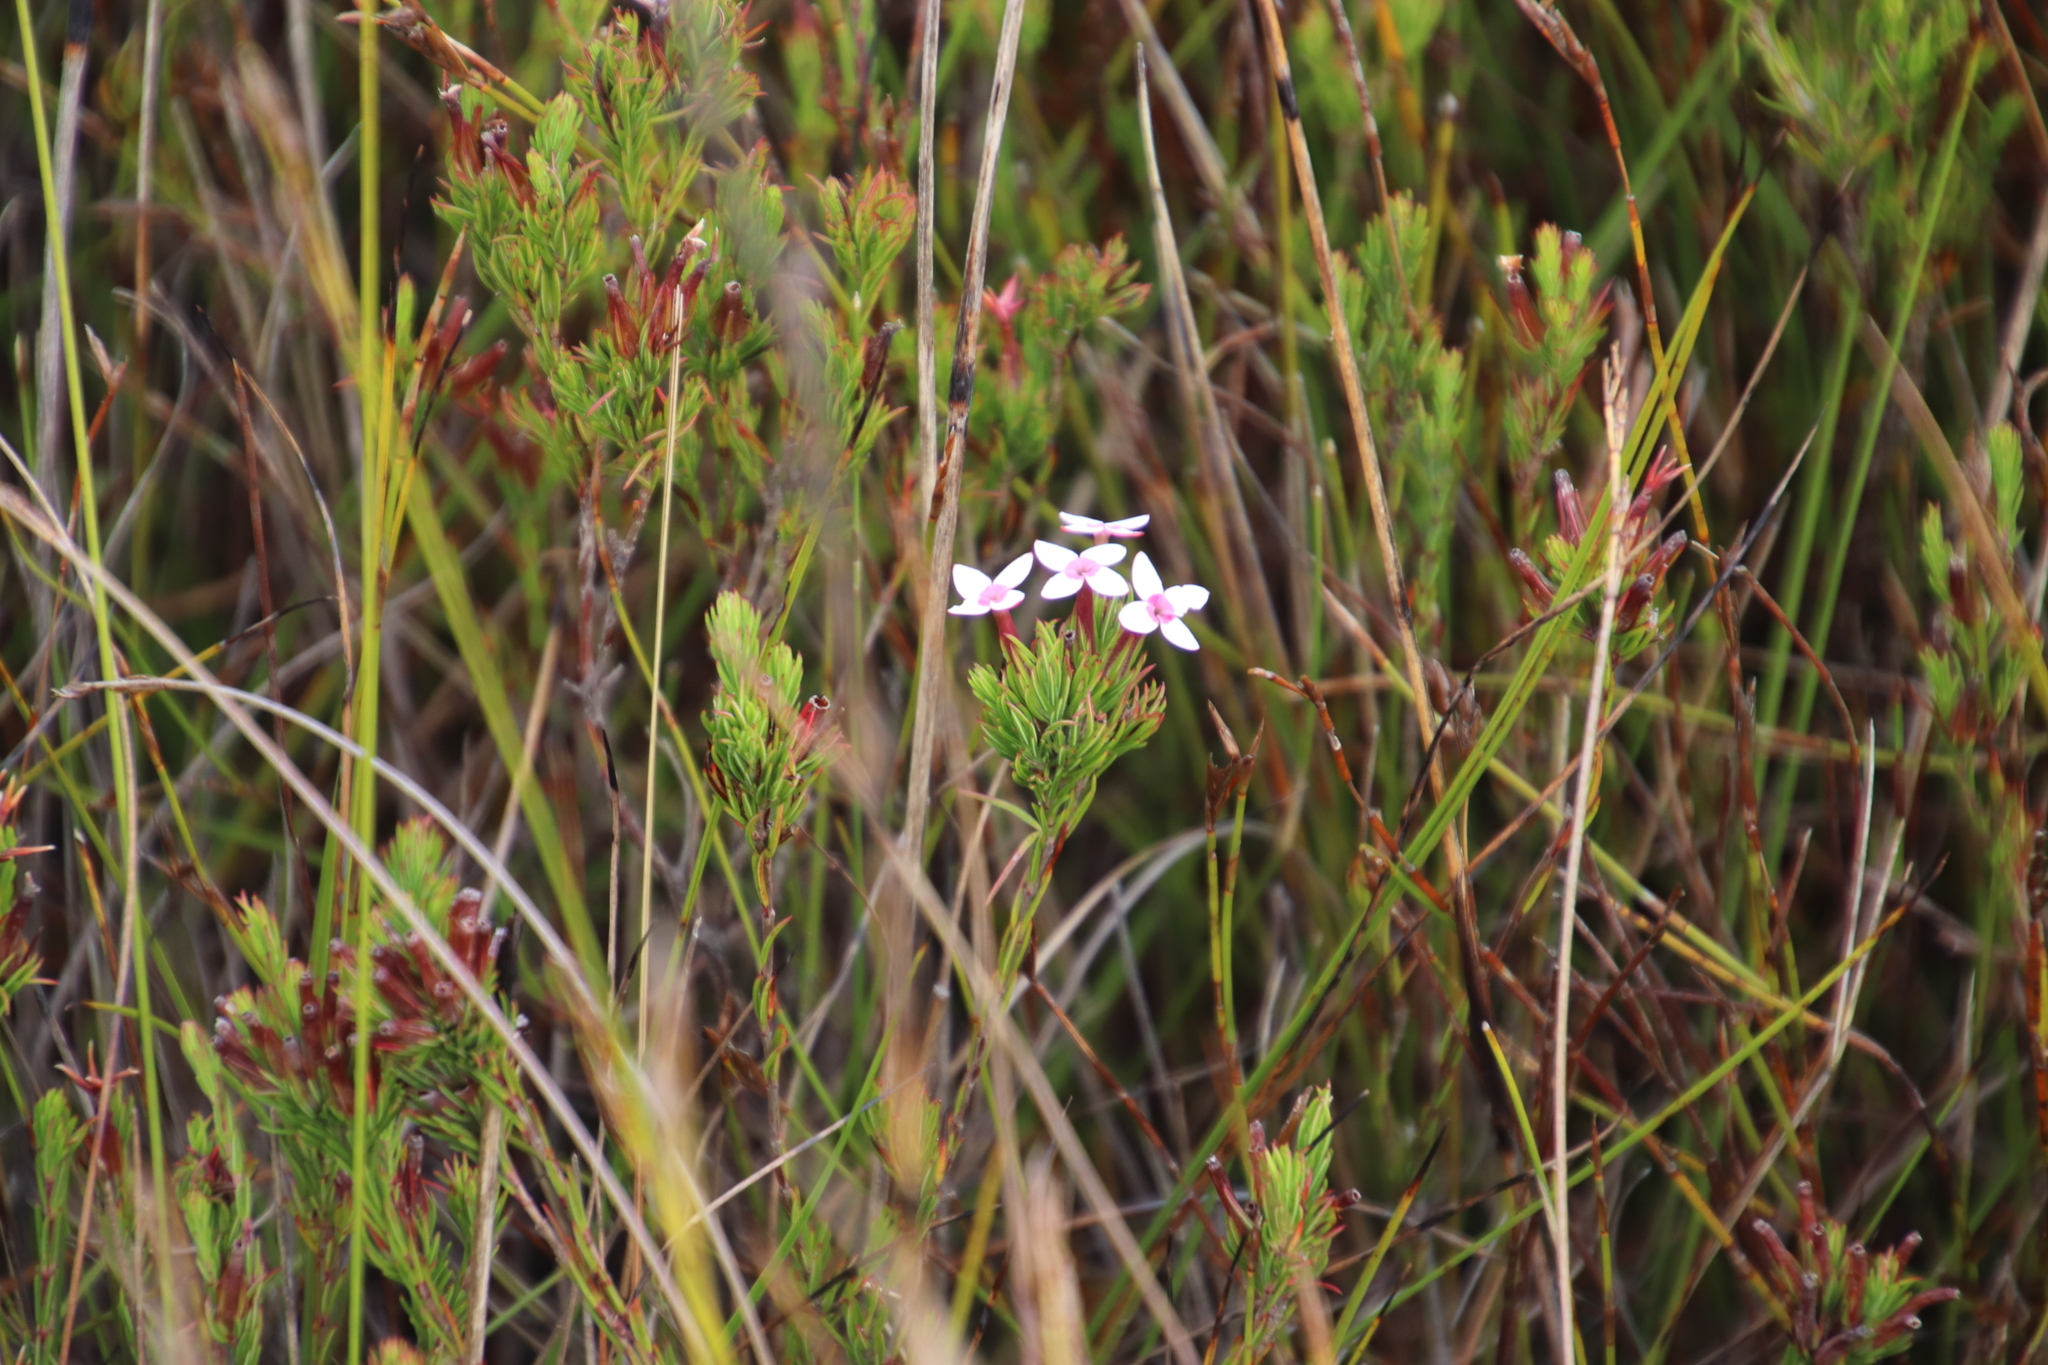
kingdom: Plantae
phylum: Tracheophyta
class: Magnoliopsida
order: Ericales
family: Ericaceae
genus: Erica
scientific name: Erica fastigiata
